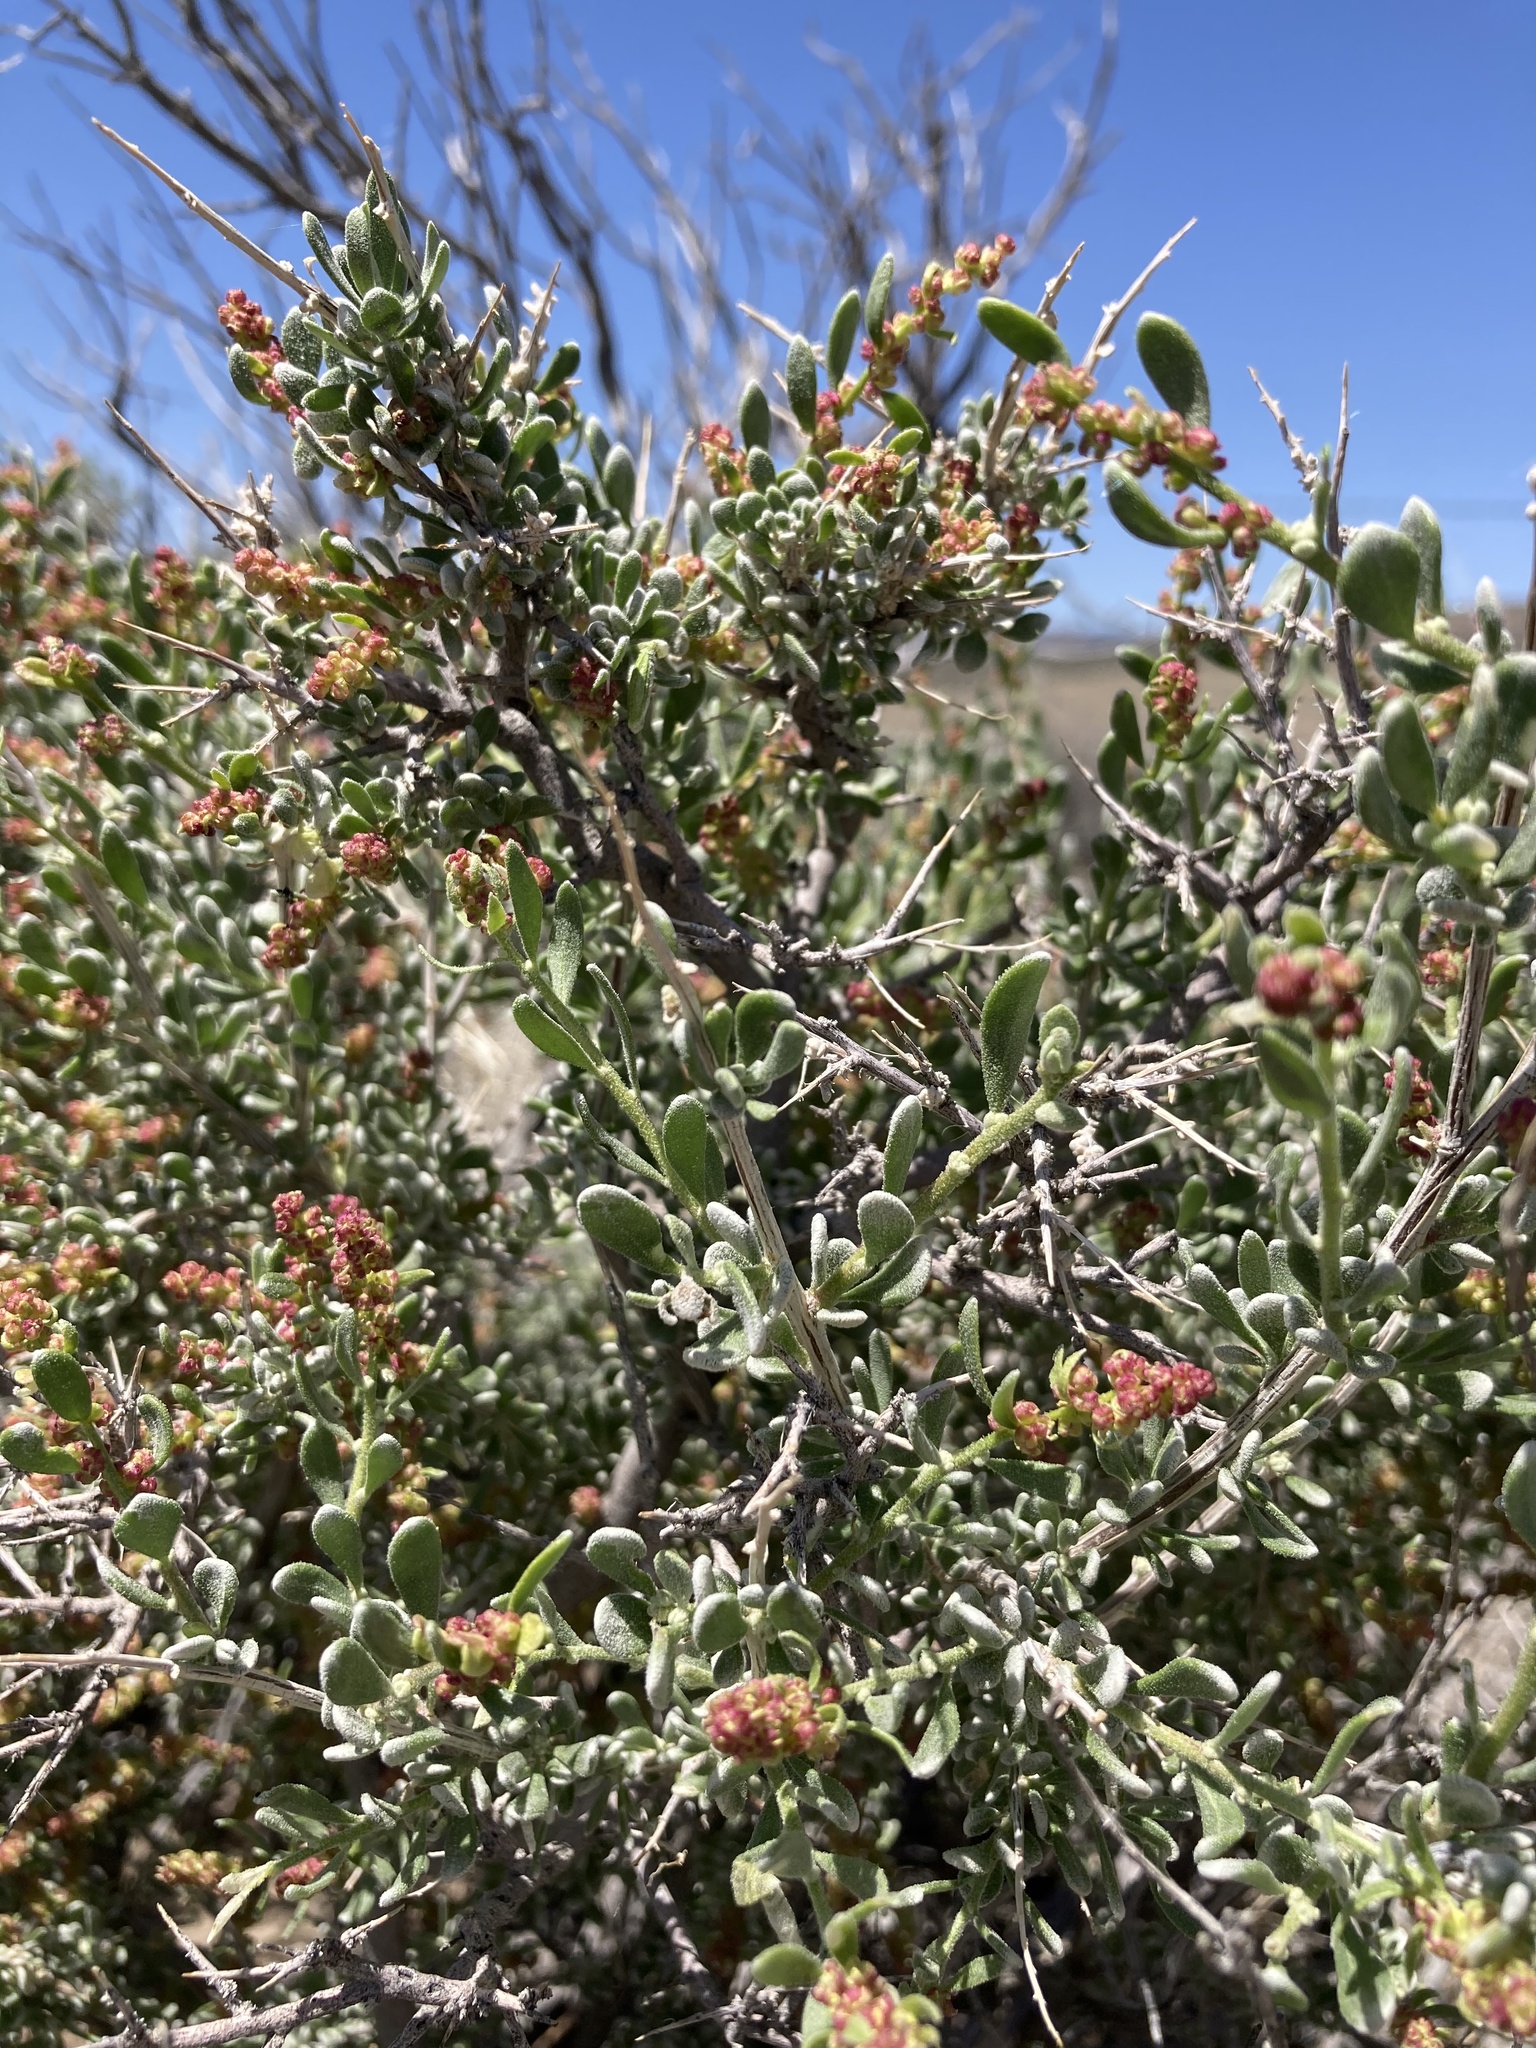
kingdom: Plantae
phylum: Tracheophyta
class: Magnoliopsida
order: Caryophyllales
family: Amaranthaceae
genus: Grayia
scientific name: Grayia spinosa
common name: Spiny hopsage
